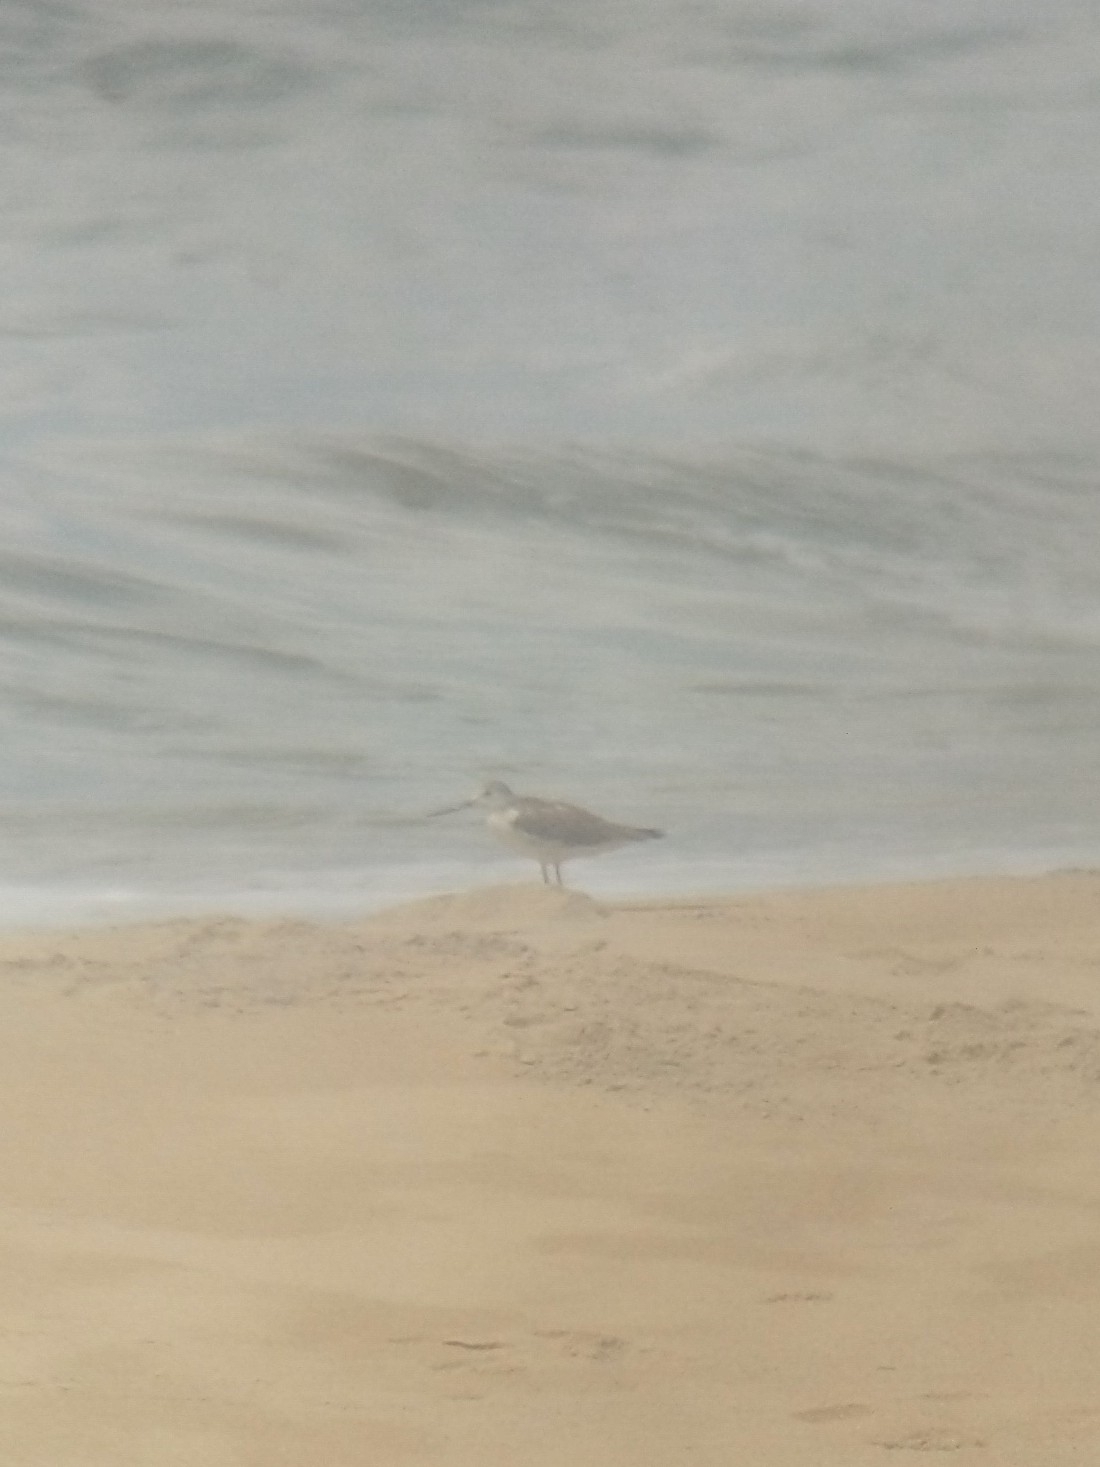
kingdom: Animalia
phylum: Chordata
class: Aves
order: Charadriiformes
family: Scolopacidae
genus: Tringa
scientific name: Tringa nebularia
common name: Common greenshank
